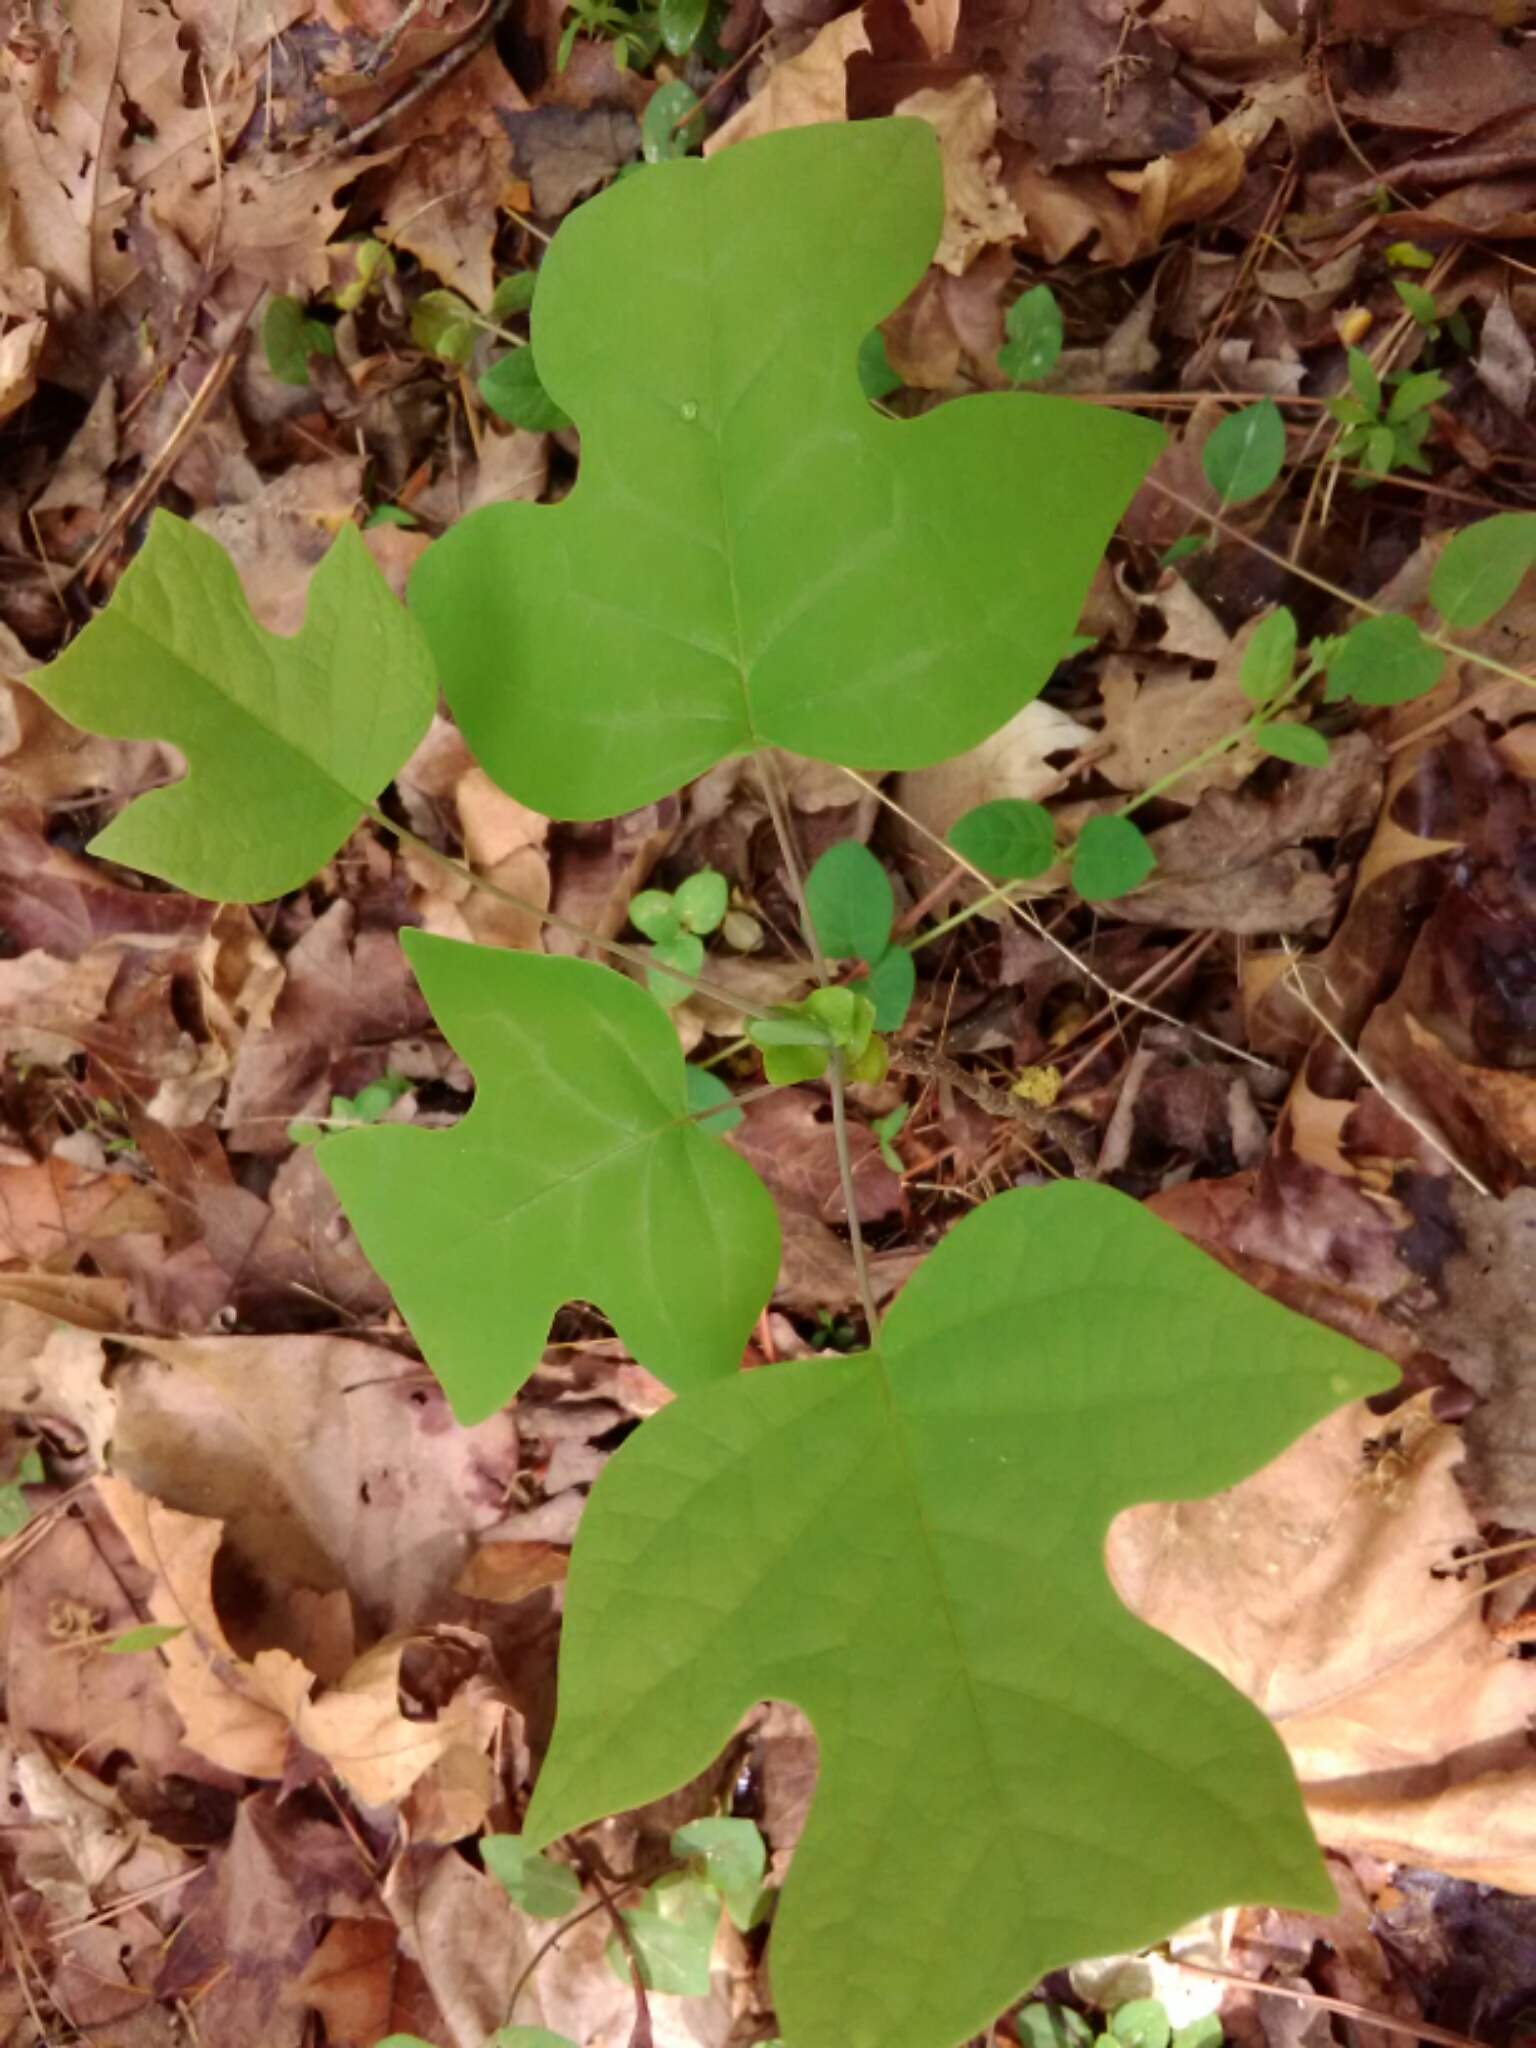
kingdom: Plantae
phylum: Tracheophyta
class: Magnoliopsida
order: Magnoliales
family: Magnoliaceae
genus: Liriodendron
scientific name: Liriodendron tulipifera
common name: Tulip tree
